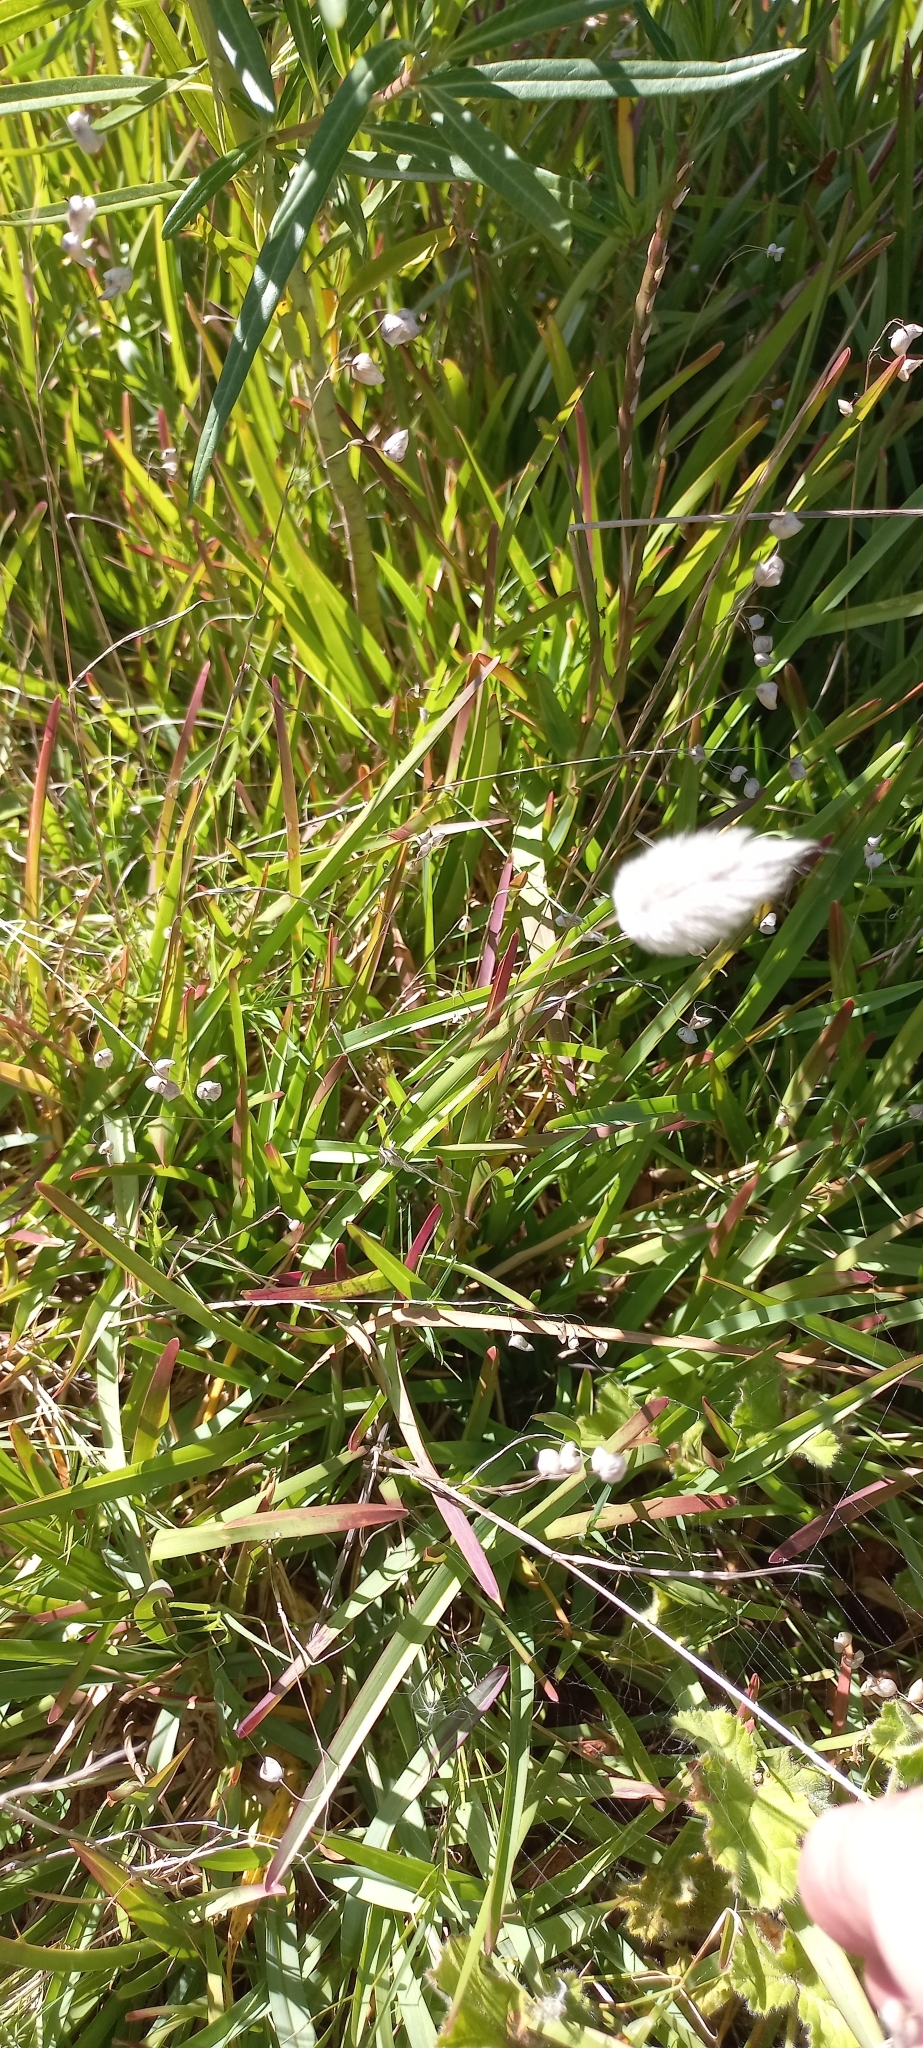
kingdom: Plantae
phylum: Tracheophyta
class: Liliopsida
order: Poales
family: Poaceae
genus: Lagurus
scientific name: Lagurus ovatus
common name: Hare's-tail
